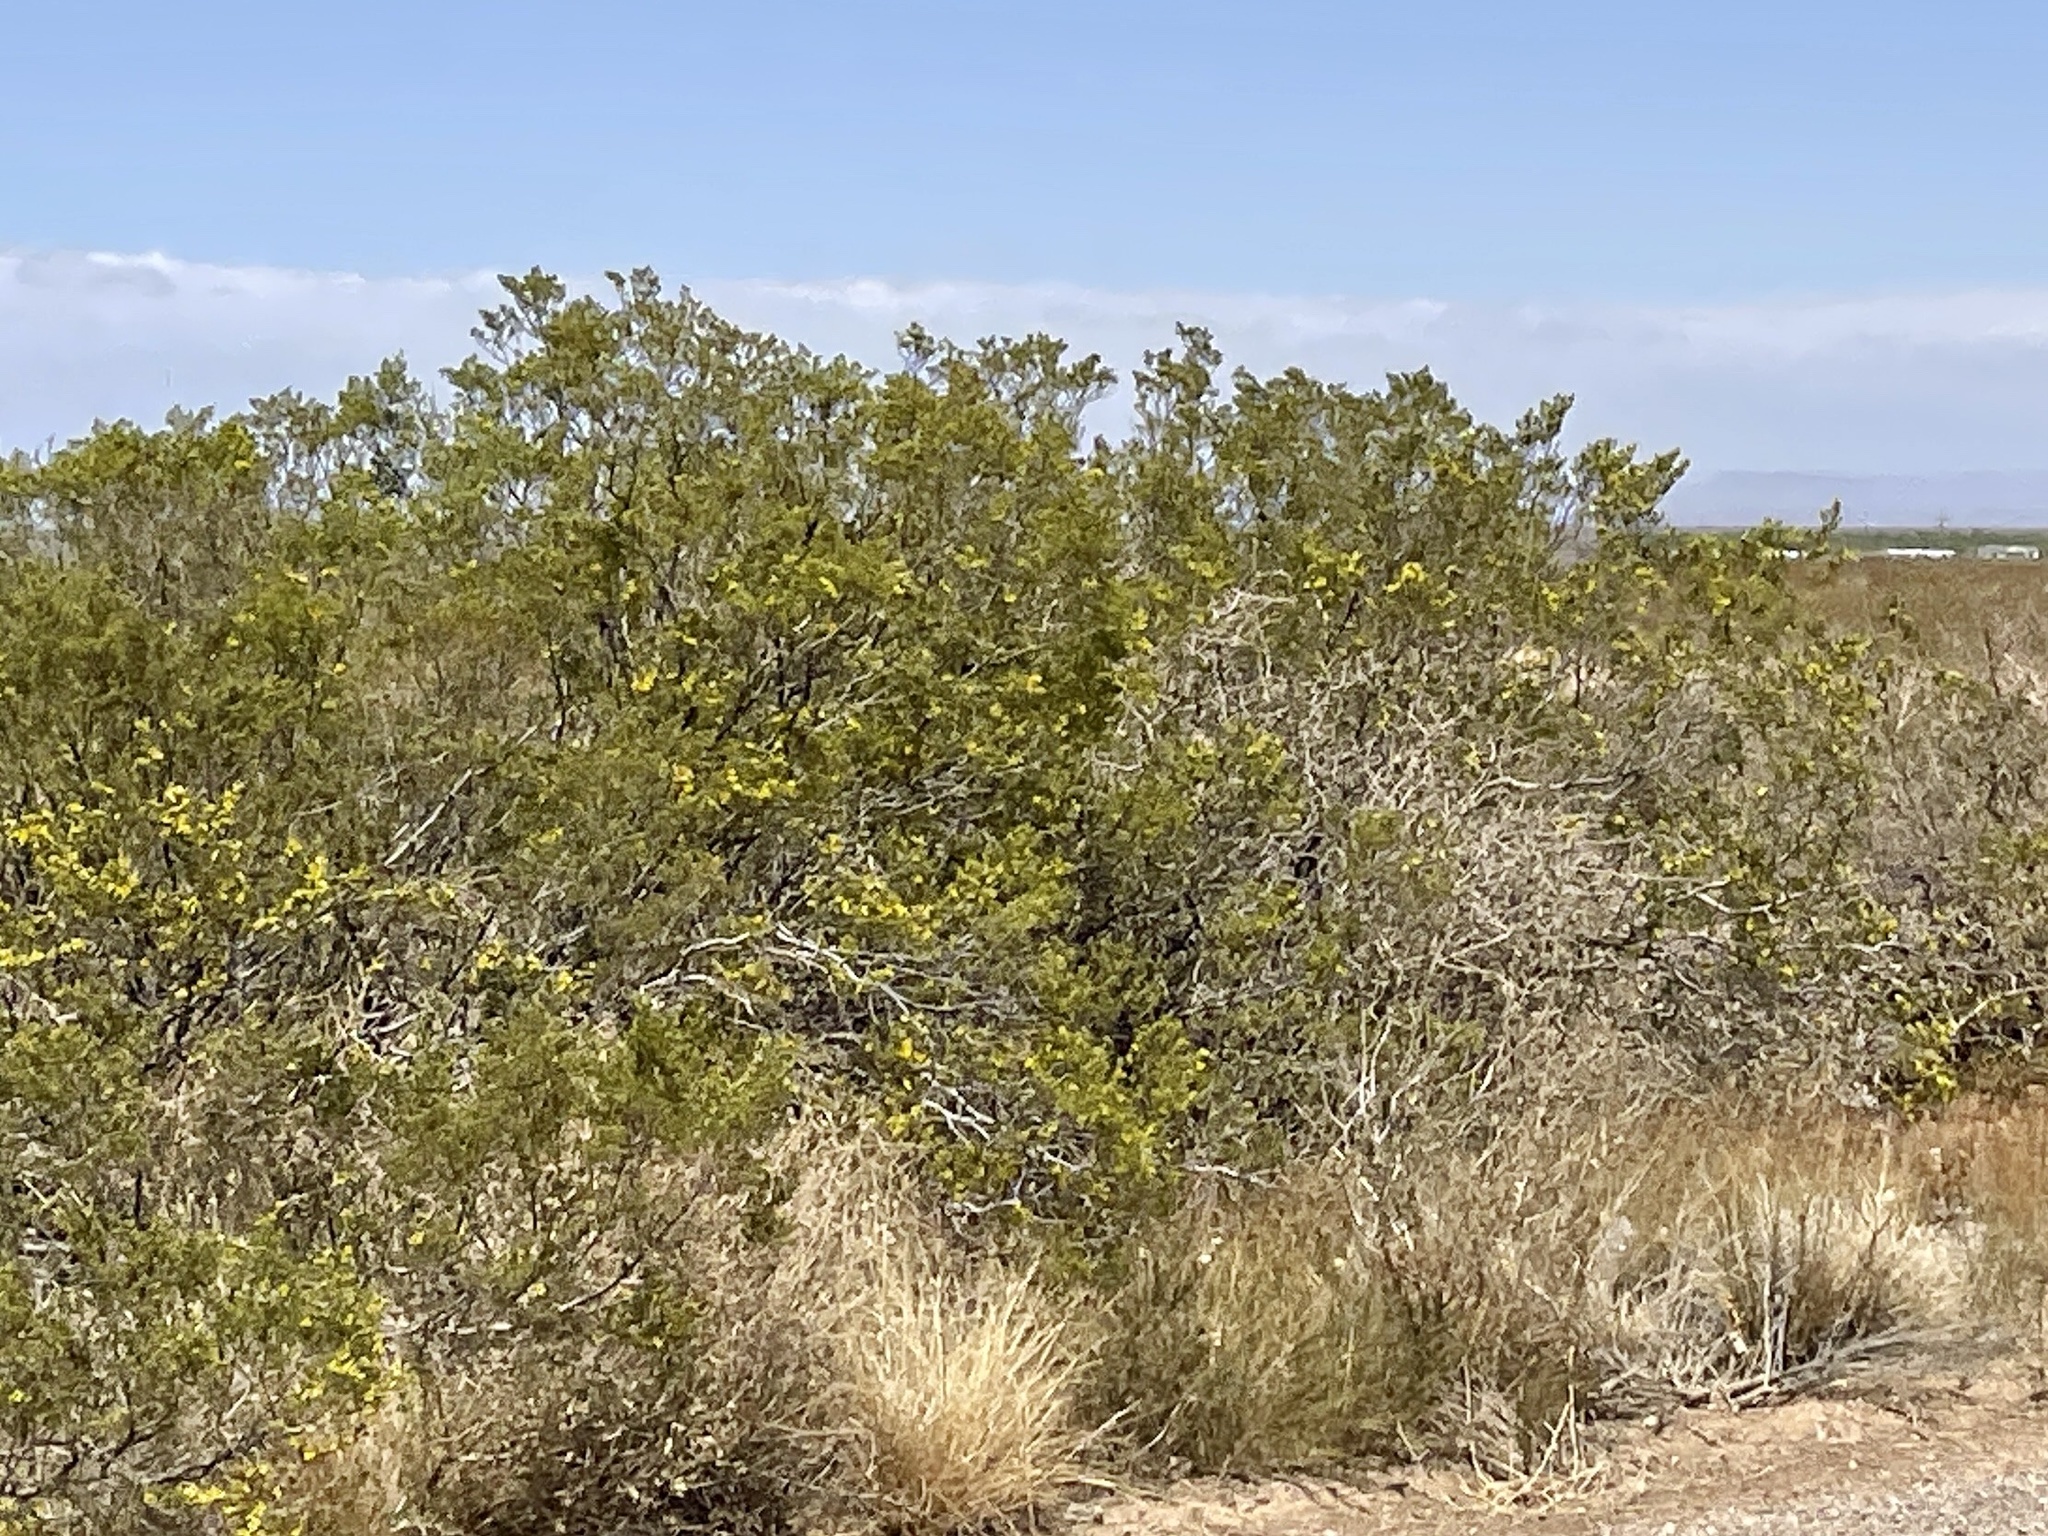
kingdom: Plantae
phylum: Tracheophyta
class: Magnoliopsida
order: Zygophyllales
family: Zygophyllaceae
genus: Larrea
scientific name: Larrea tridentata
